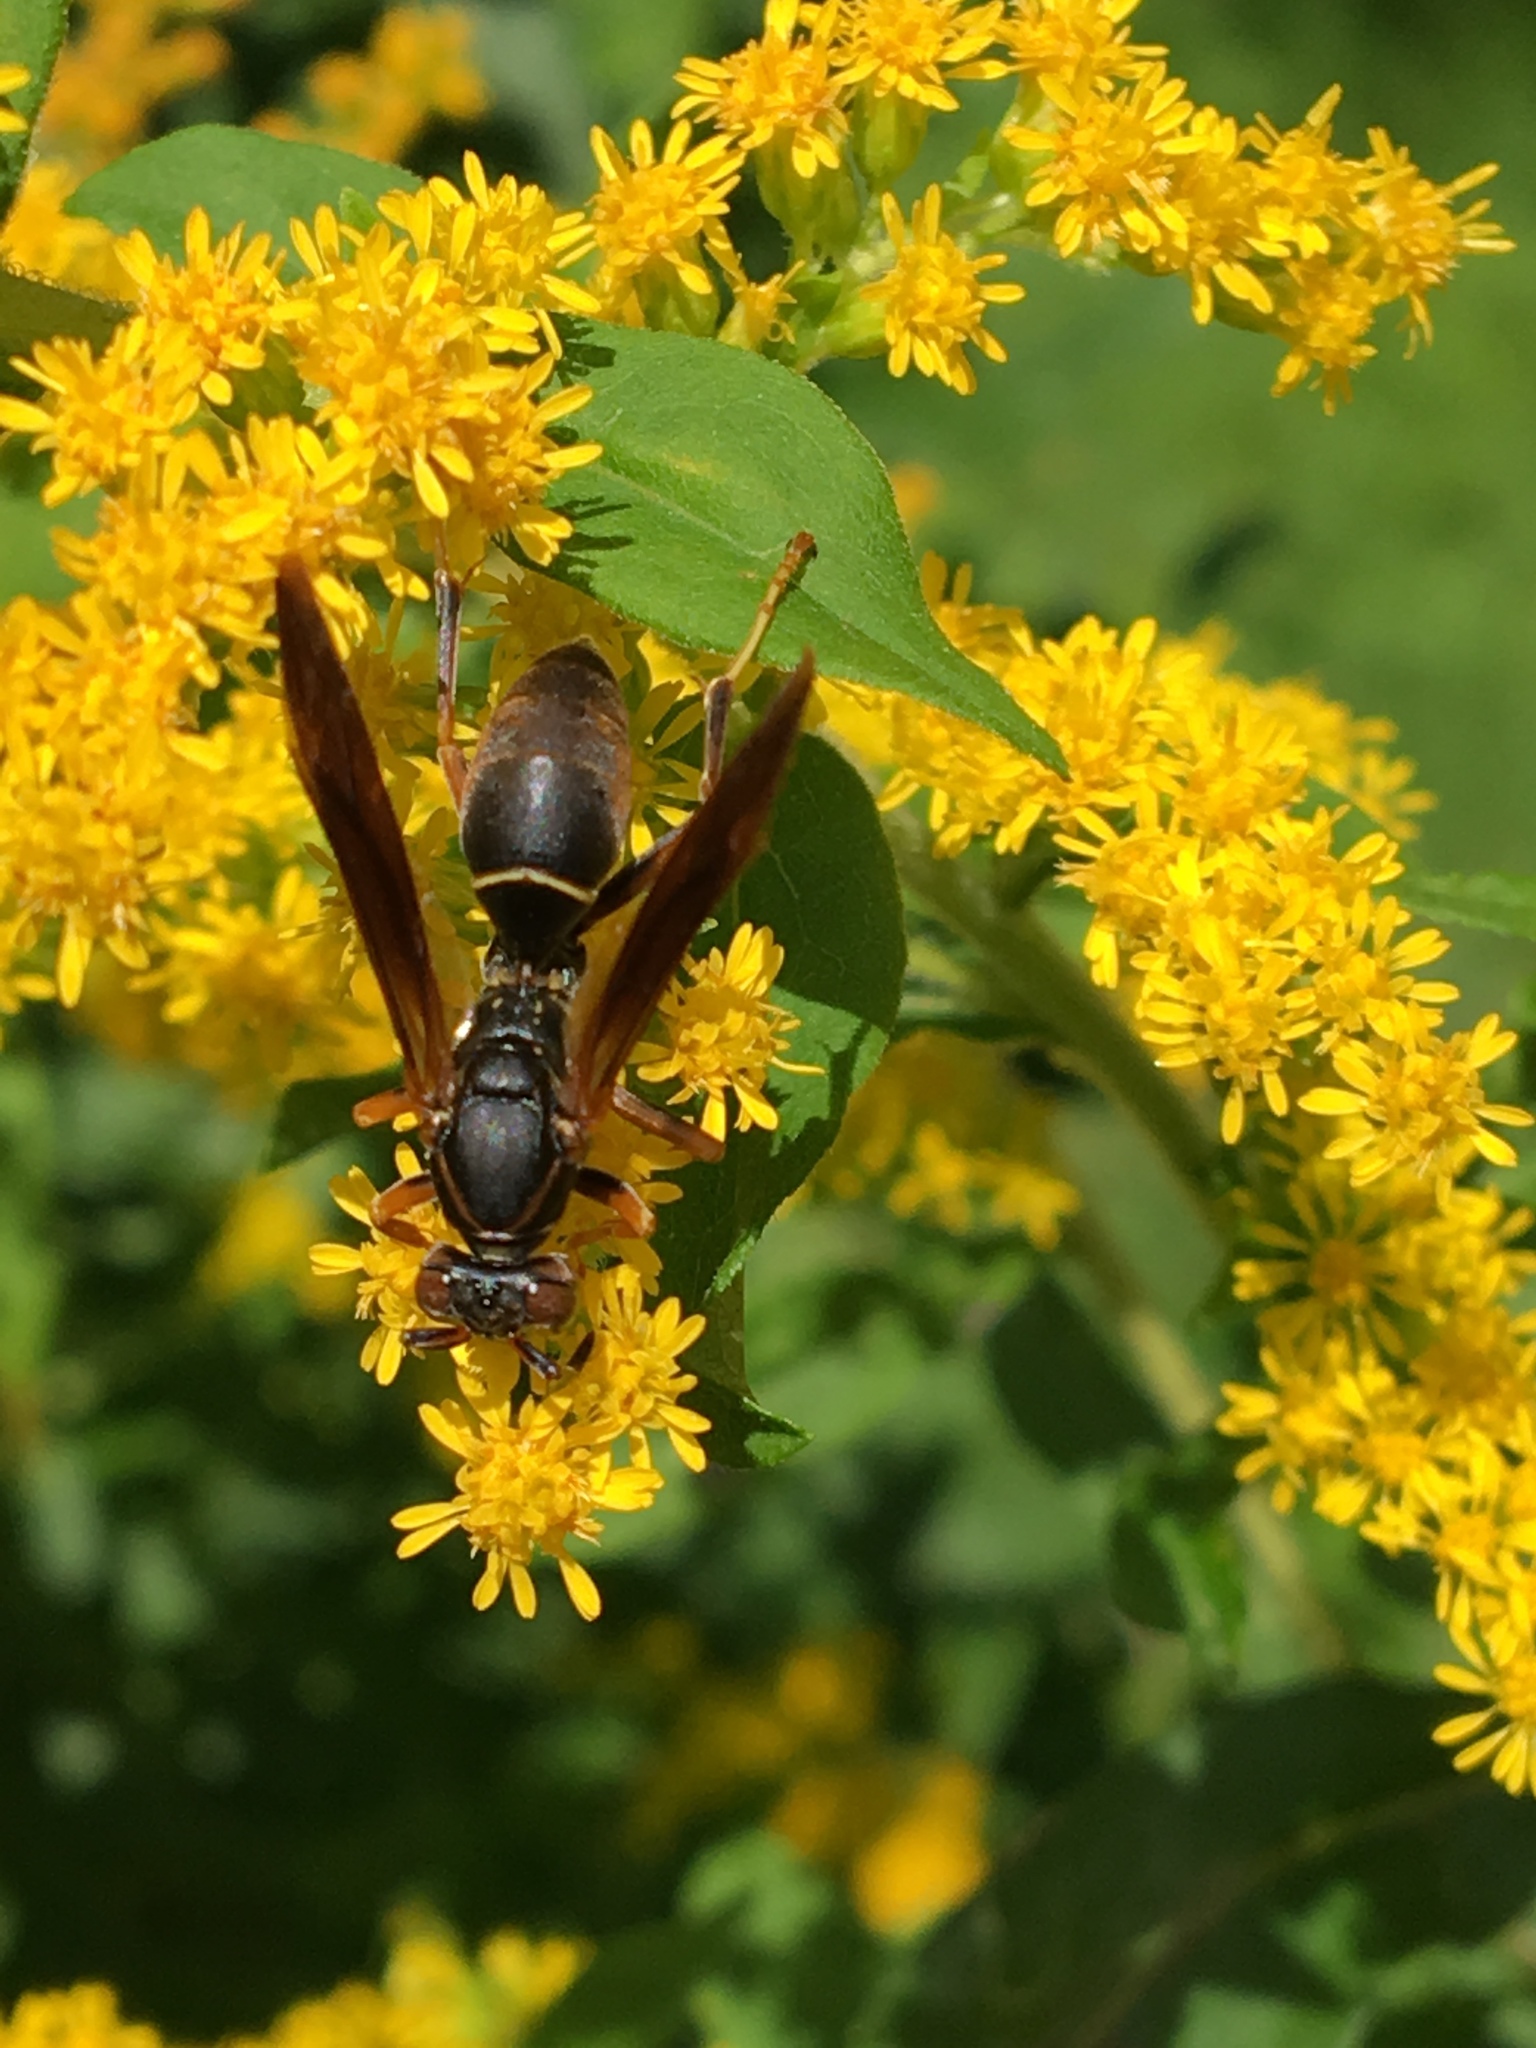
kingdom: Animalia
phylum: Arthropoda
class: Insecta
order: Hymenoptera
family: Eumenidae
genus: Polistes
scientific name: Polistes fuscatus
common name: Dark paper wasp
